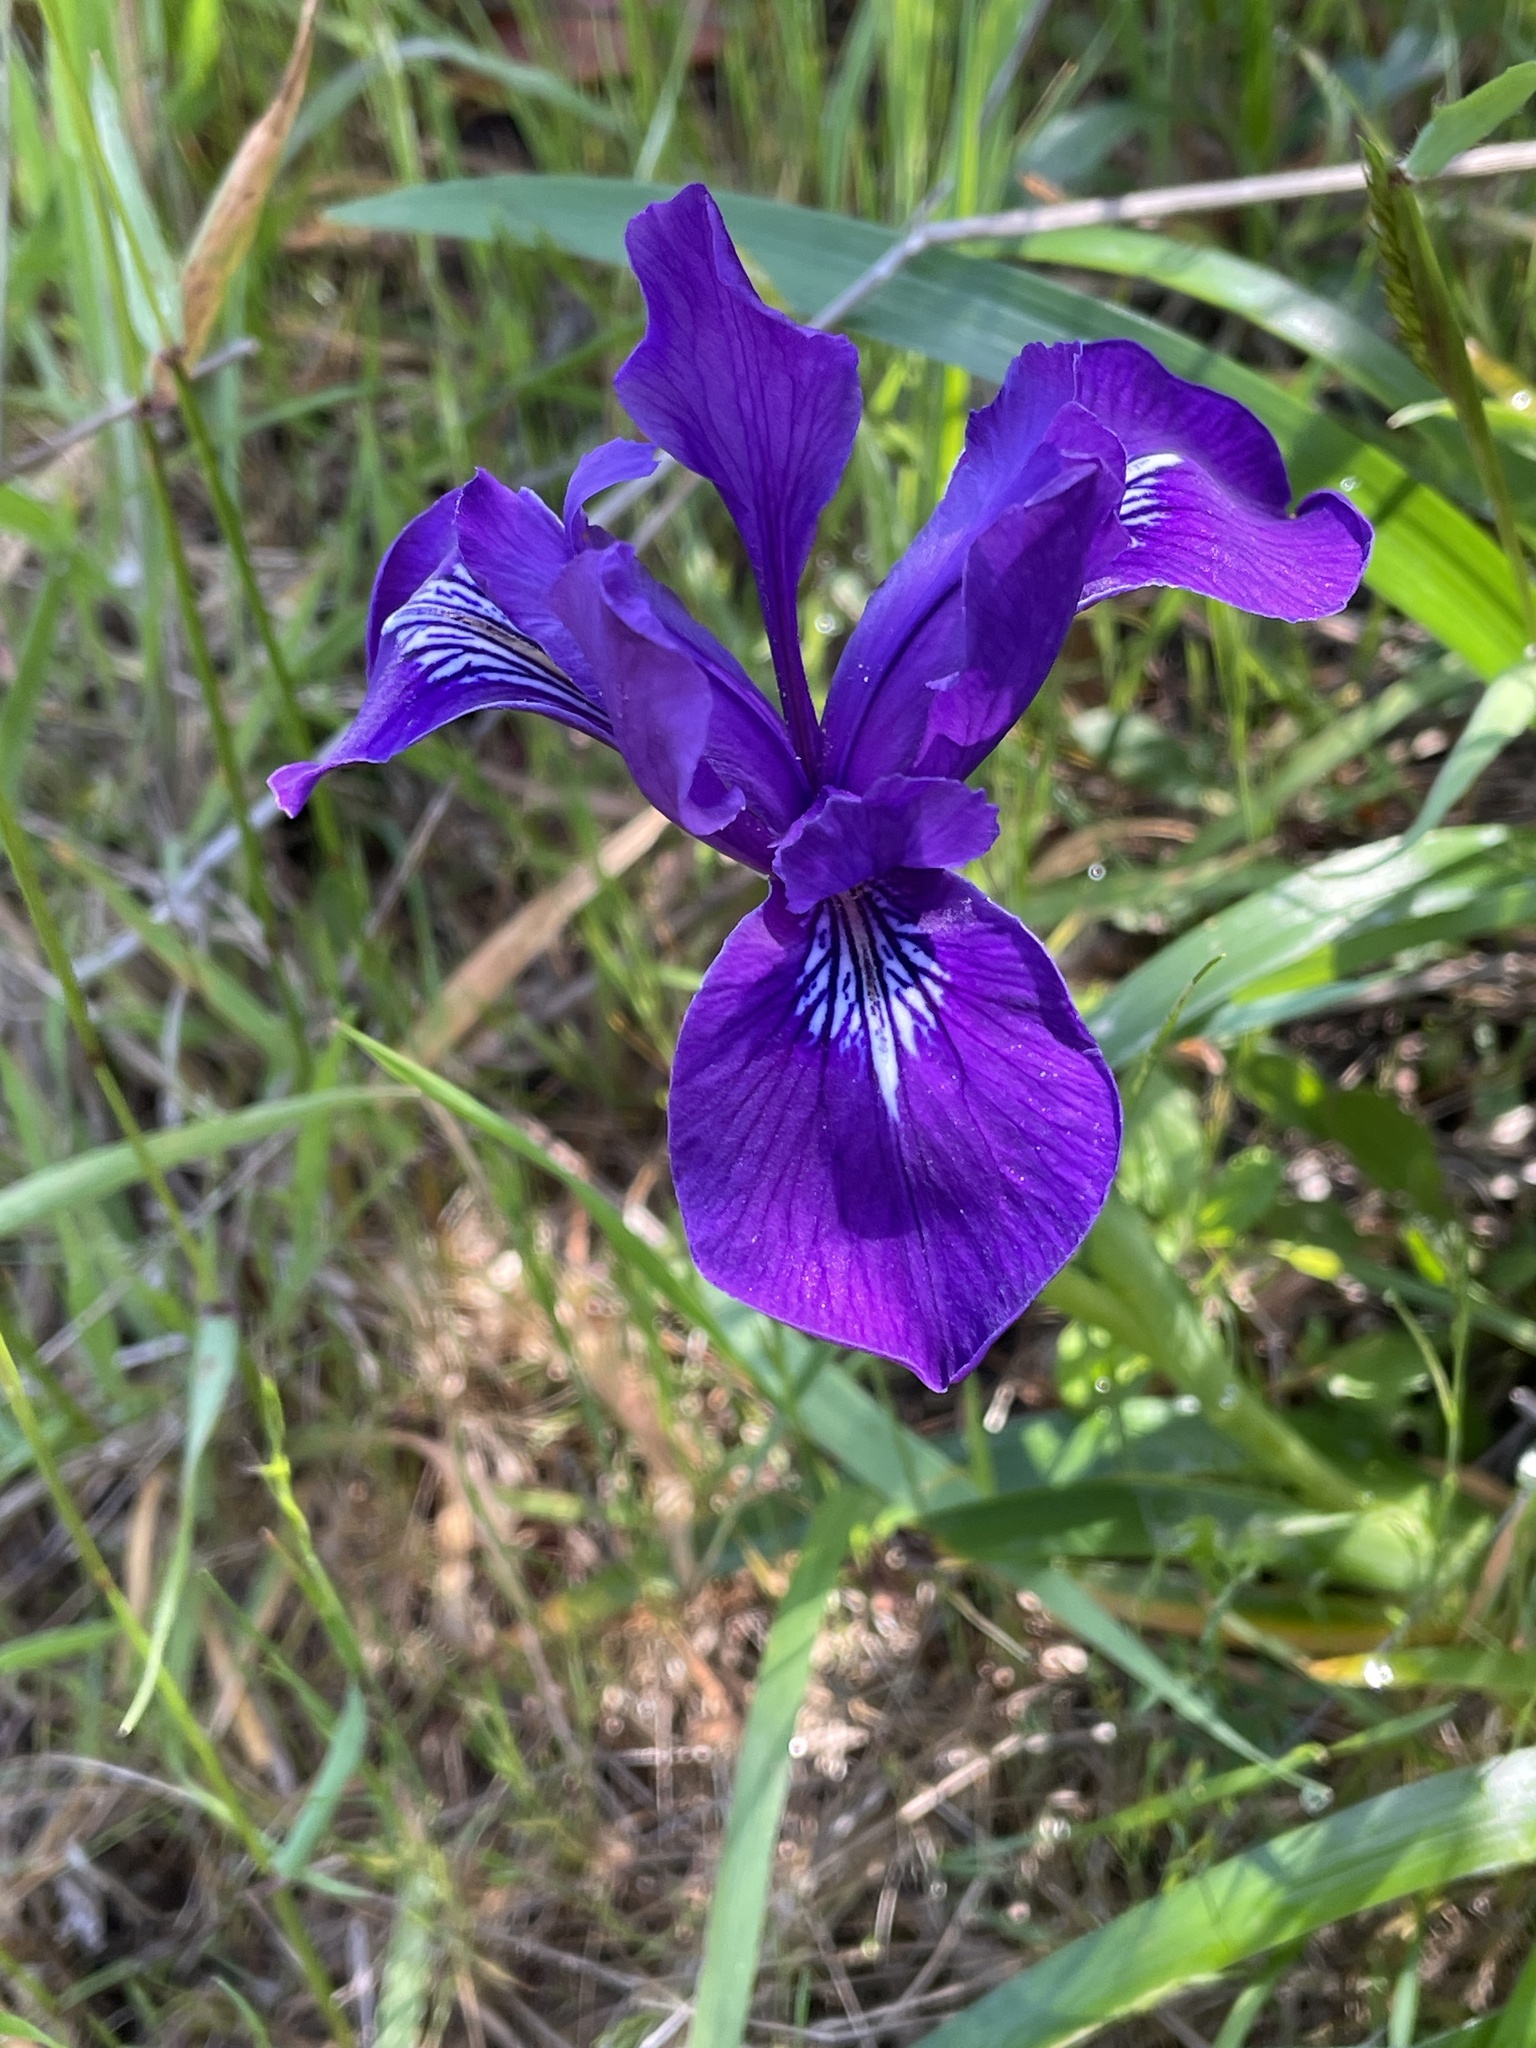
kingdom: Plantae
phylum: Tracheophyta
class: Liliopsida
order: Asparagales
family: Iridaceae
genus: Iris
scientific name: Iris douglasiana
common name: Marin iris
